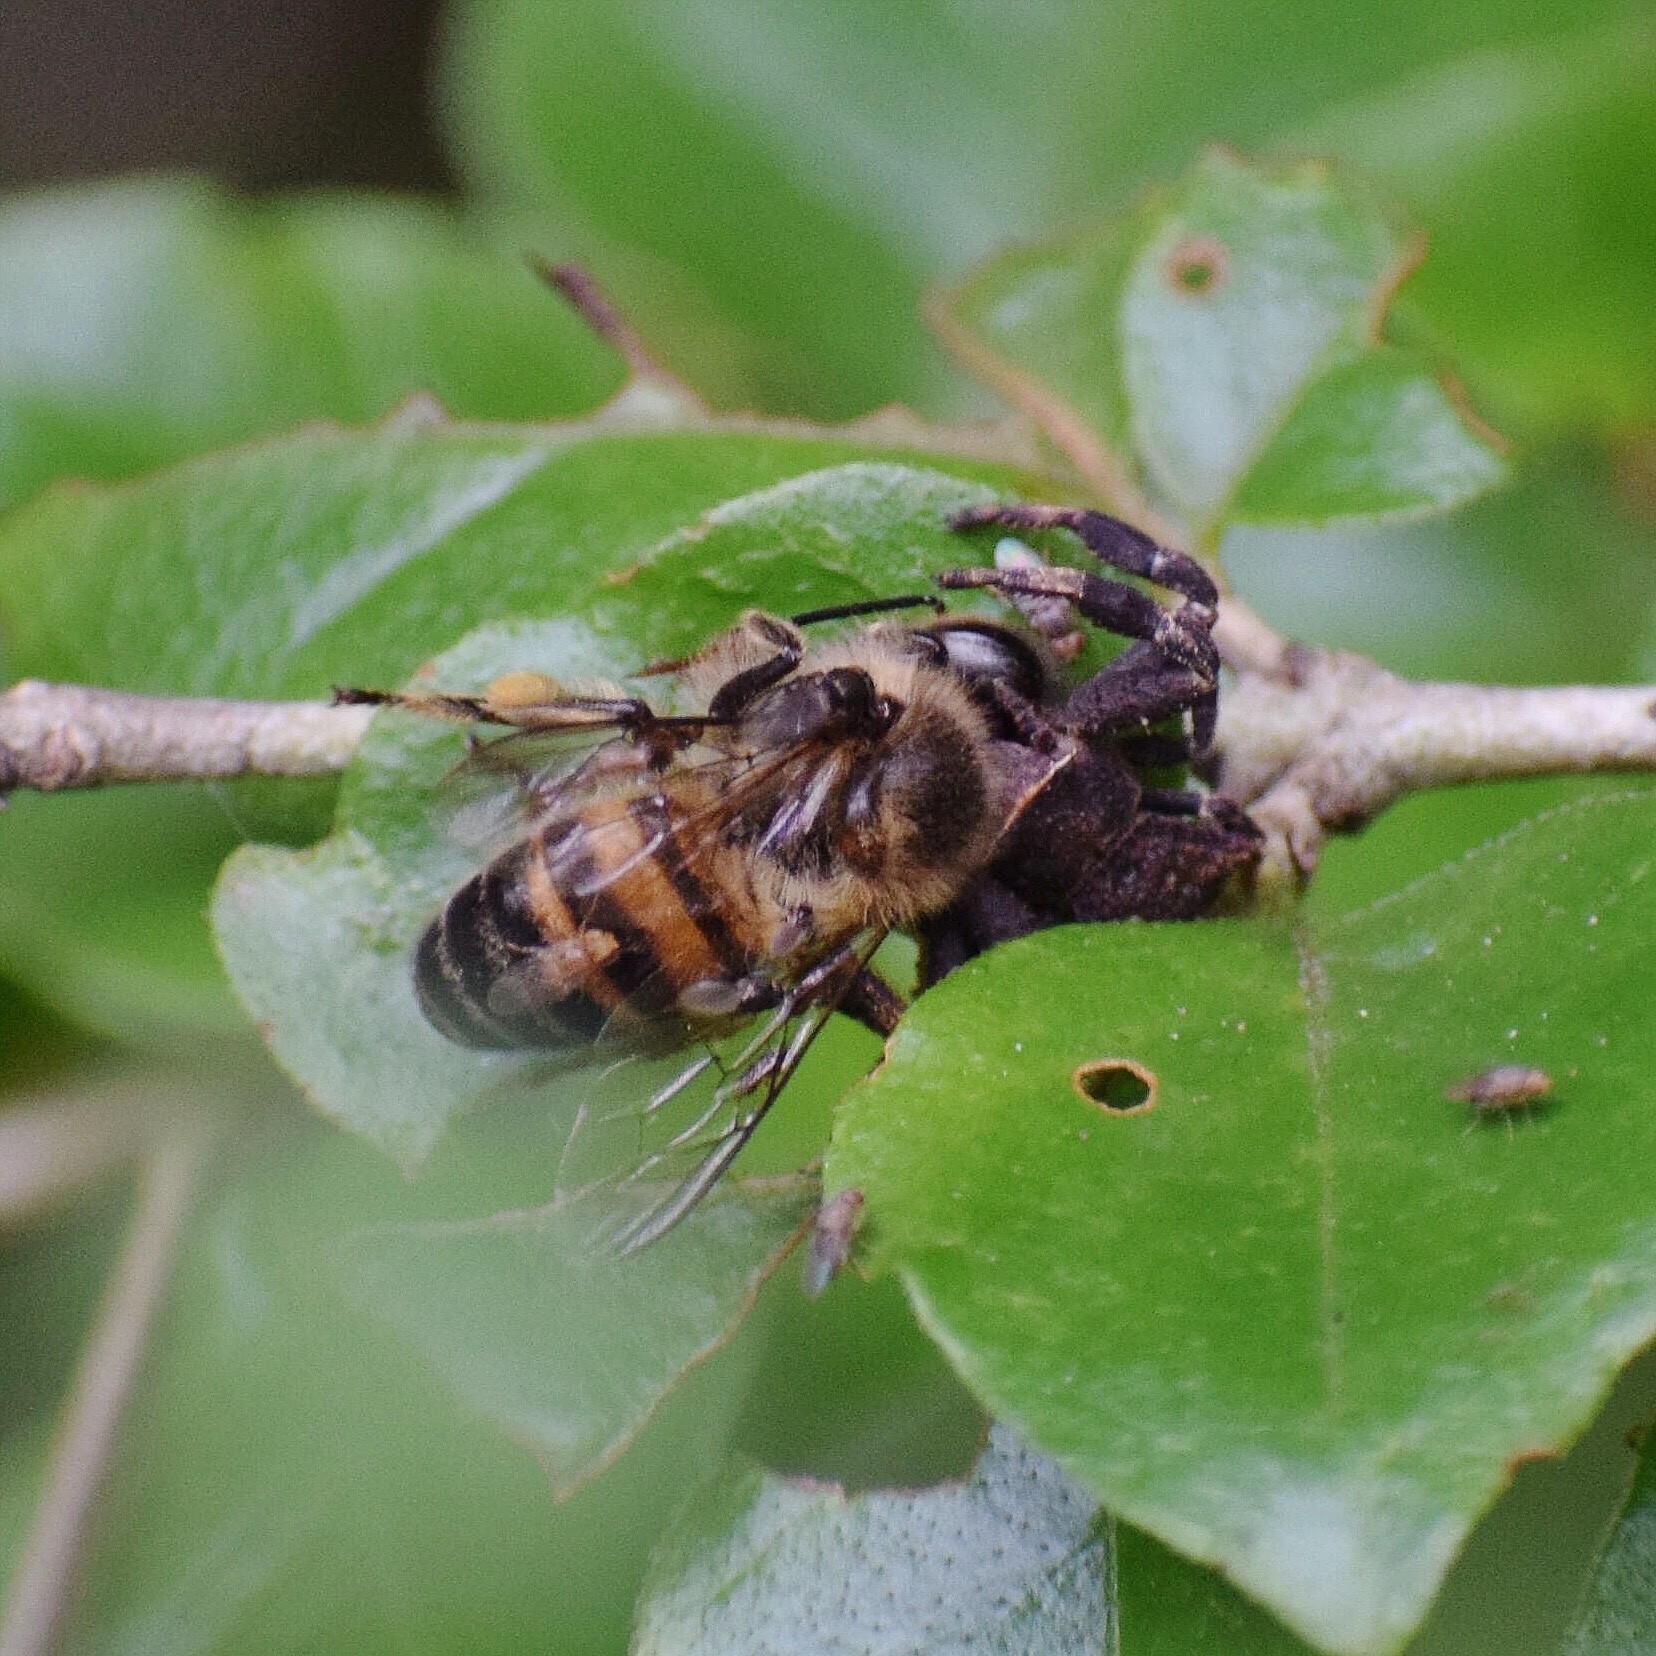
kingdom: Animalia
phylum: Arthropoda
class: Insecta
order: Hymenoptera
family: Apidae
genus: Apis
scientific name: Apis mellifera
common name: Honey bee
